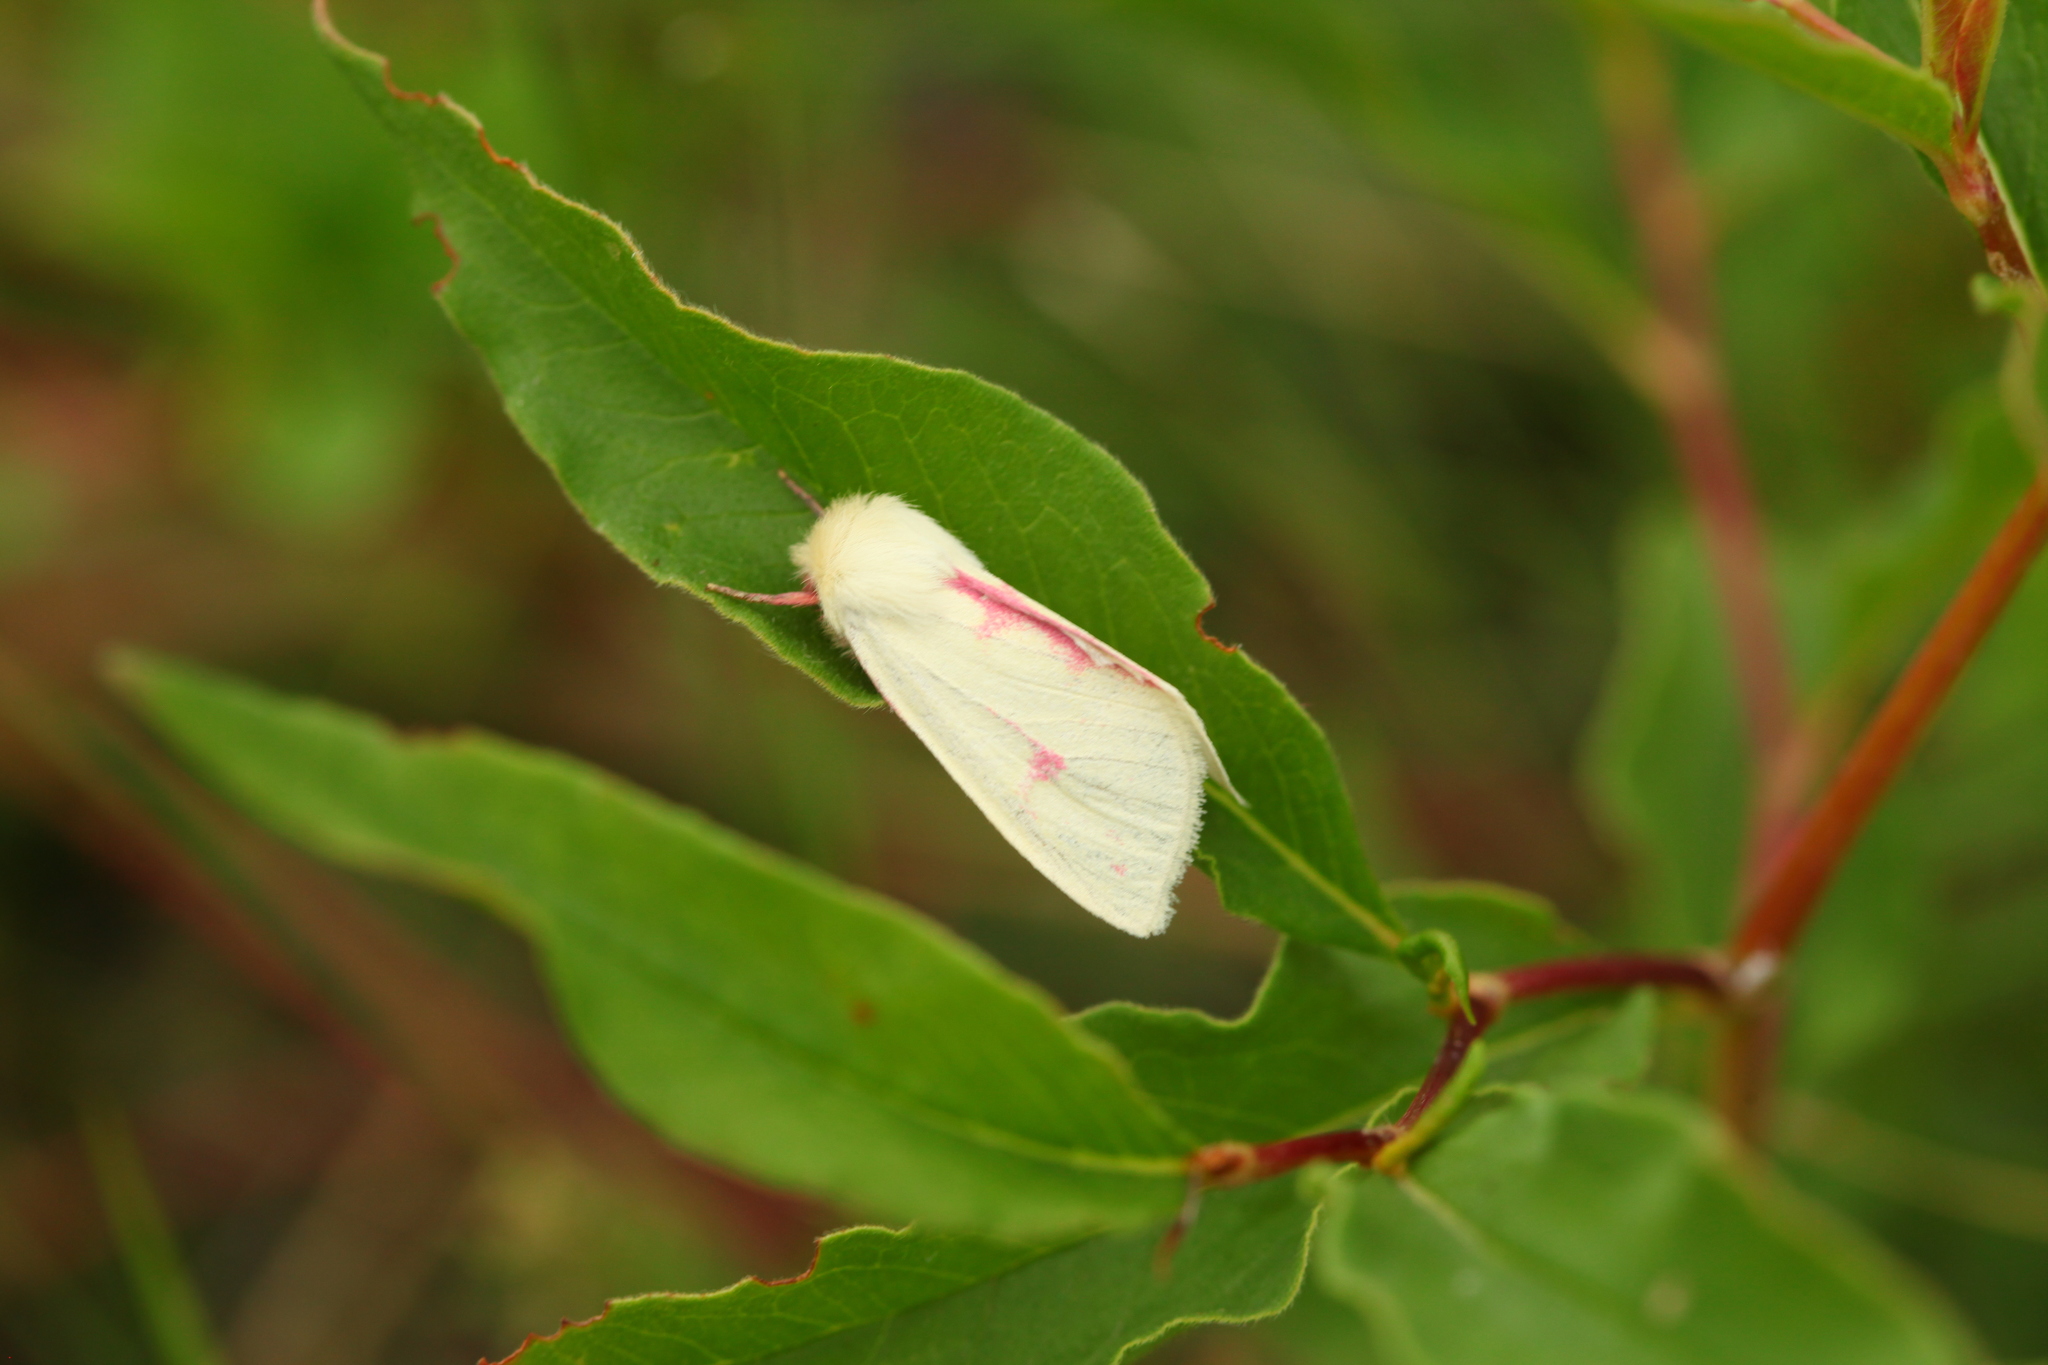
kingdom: Animalia
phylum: Arthropoda
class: Insecta
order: Lepidoptera
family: Noctuidae
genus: Isochlora
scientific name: Isochlora grumi
